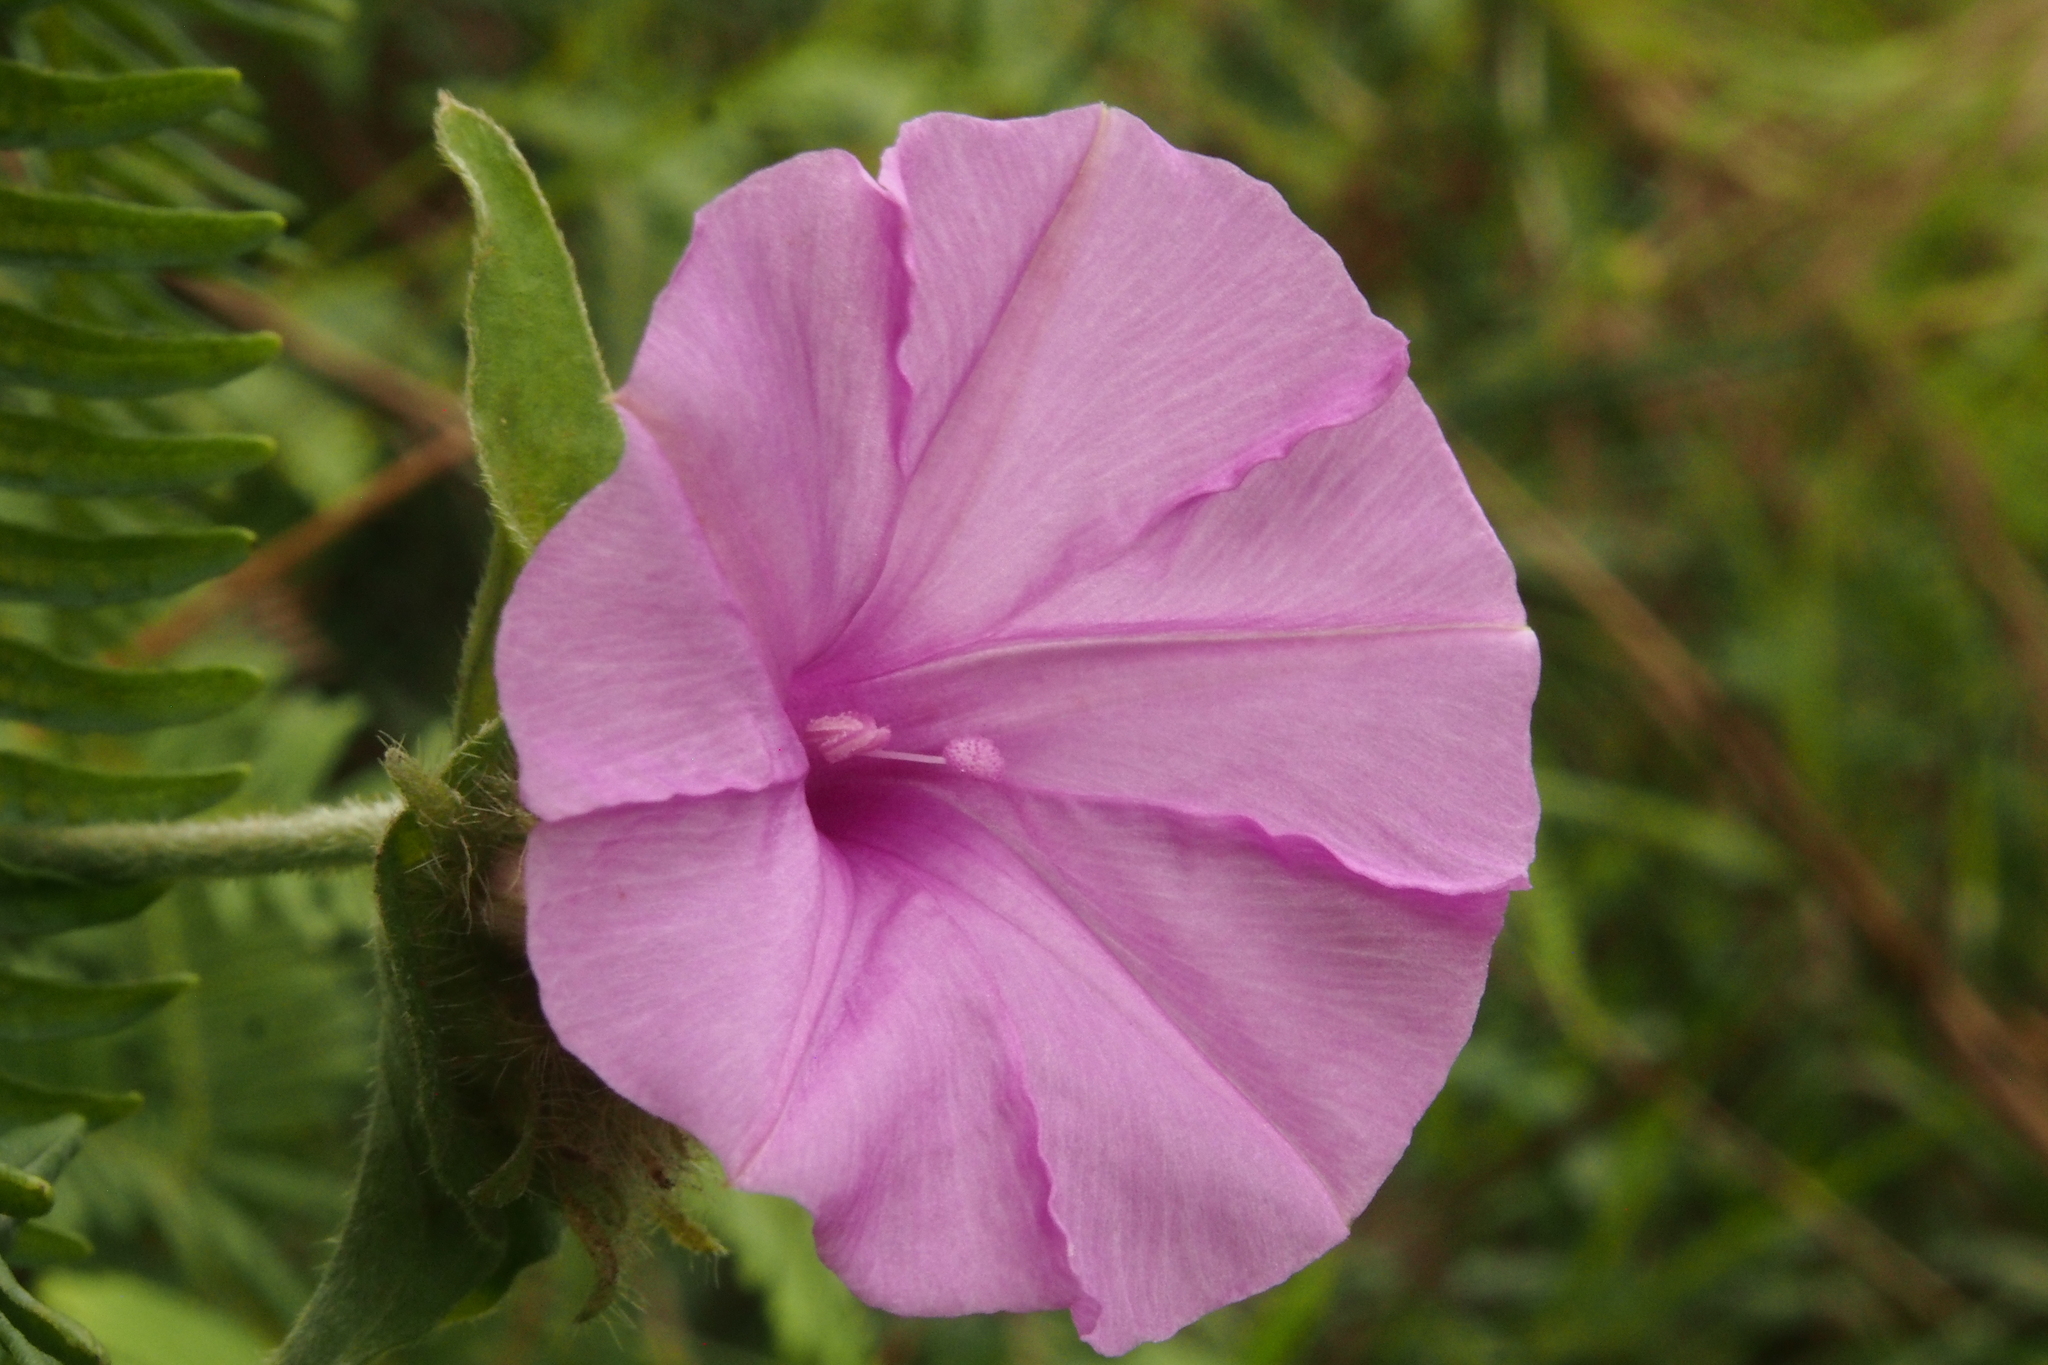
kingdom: Plantae
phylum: Tracheophyta
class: Magnoliopsida
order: Solanales
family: Convolvulaceae
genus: Ipomoea
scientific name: Ipomoea involucrata
